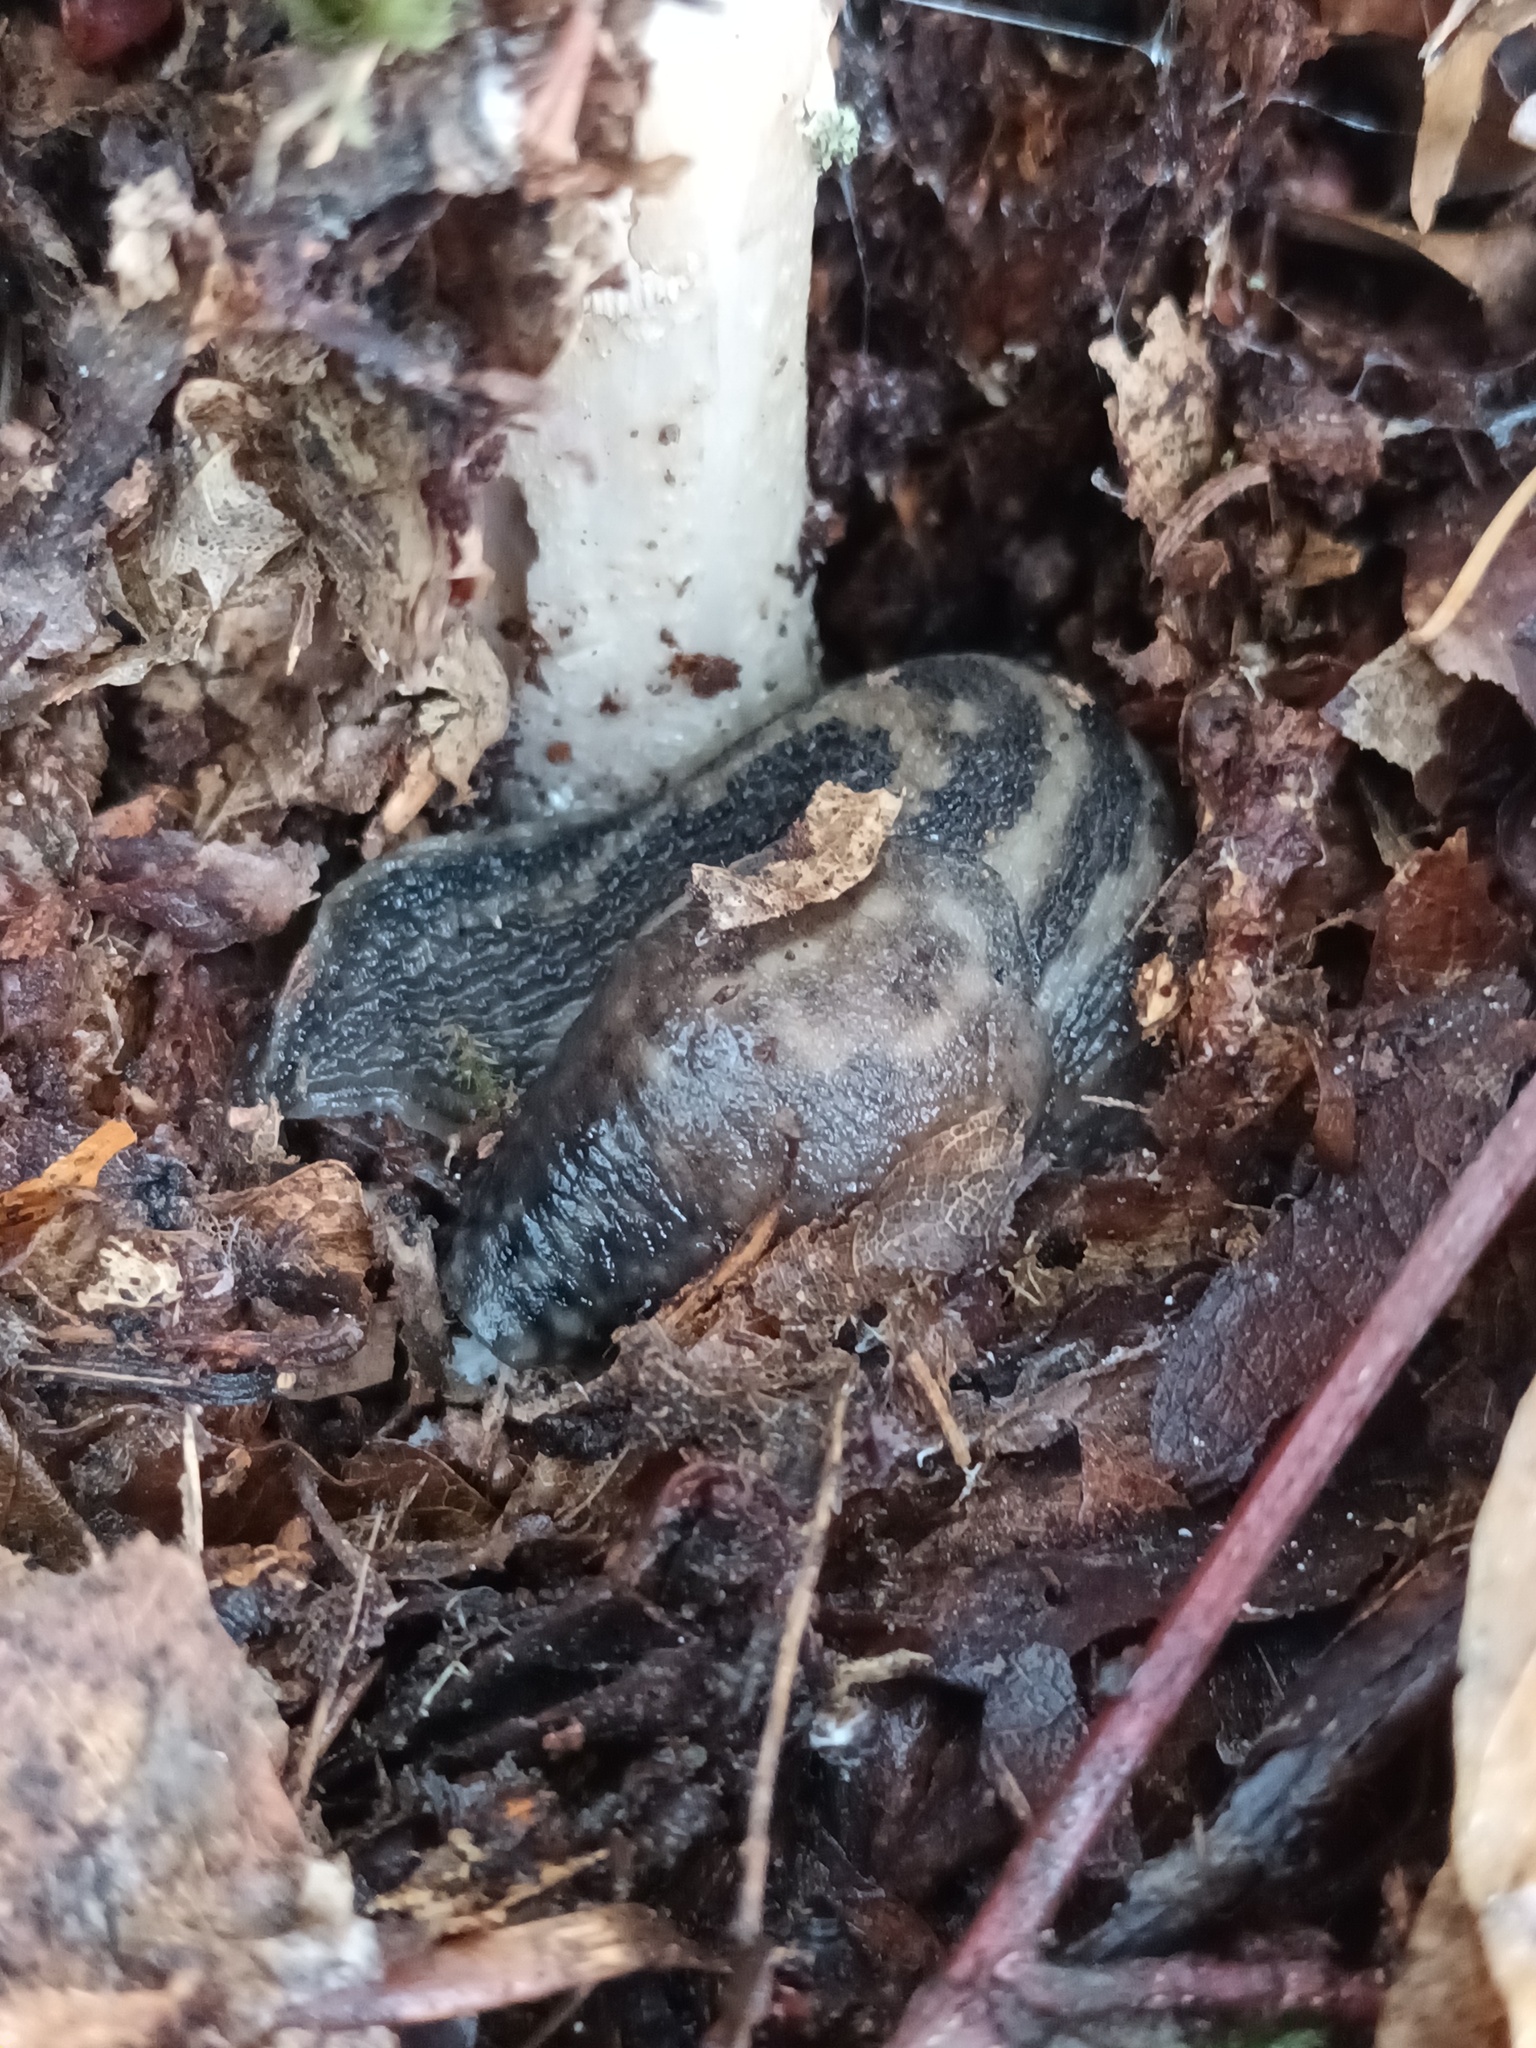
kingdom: Animalia
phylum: Mollusca
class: Gastropoda
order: Stylommatophora
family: Limacidae
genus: Limax
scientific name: Limax maximus
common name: Great grey slug
